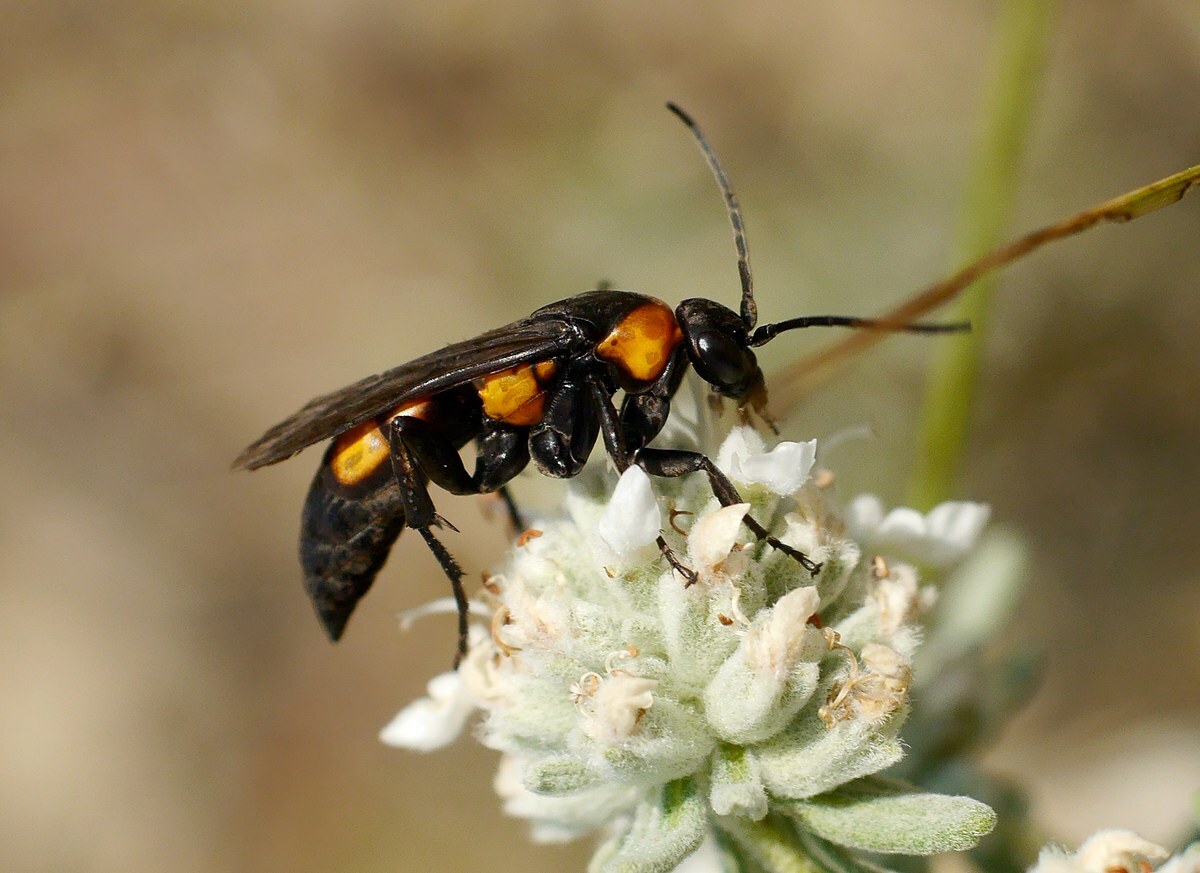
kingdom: Animalia
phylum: Arthropoda
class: Insecta
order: Hymenoptera
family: Pompilidae
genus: Eoferreola
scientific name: Eoferreola erythraea
